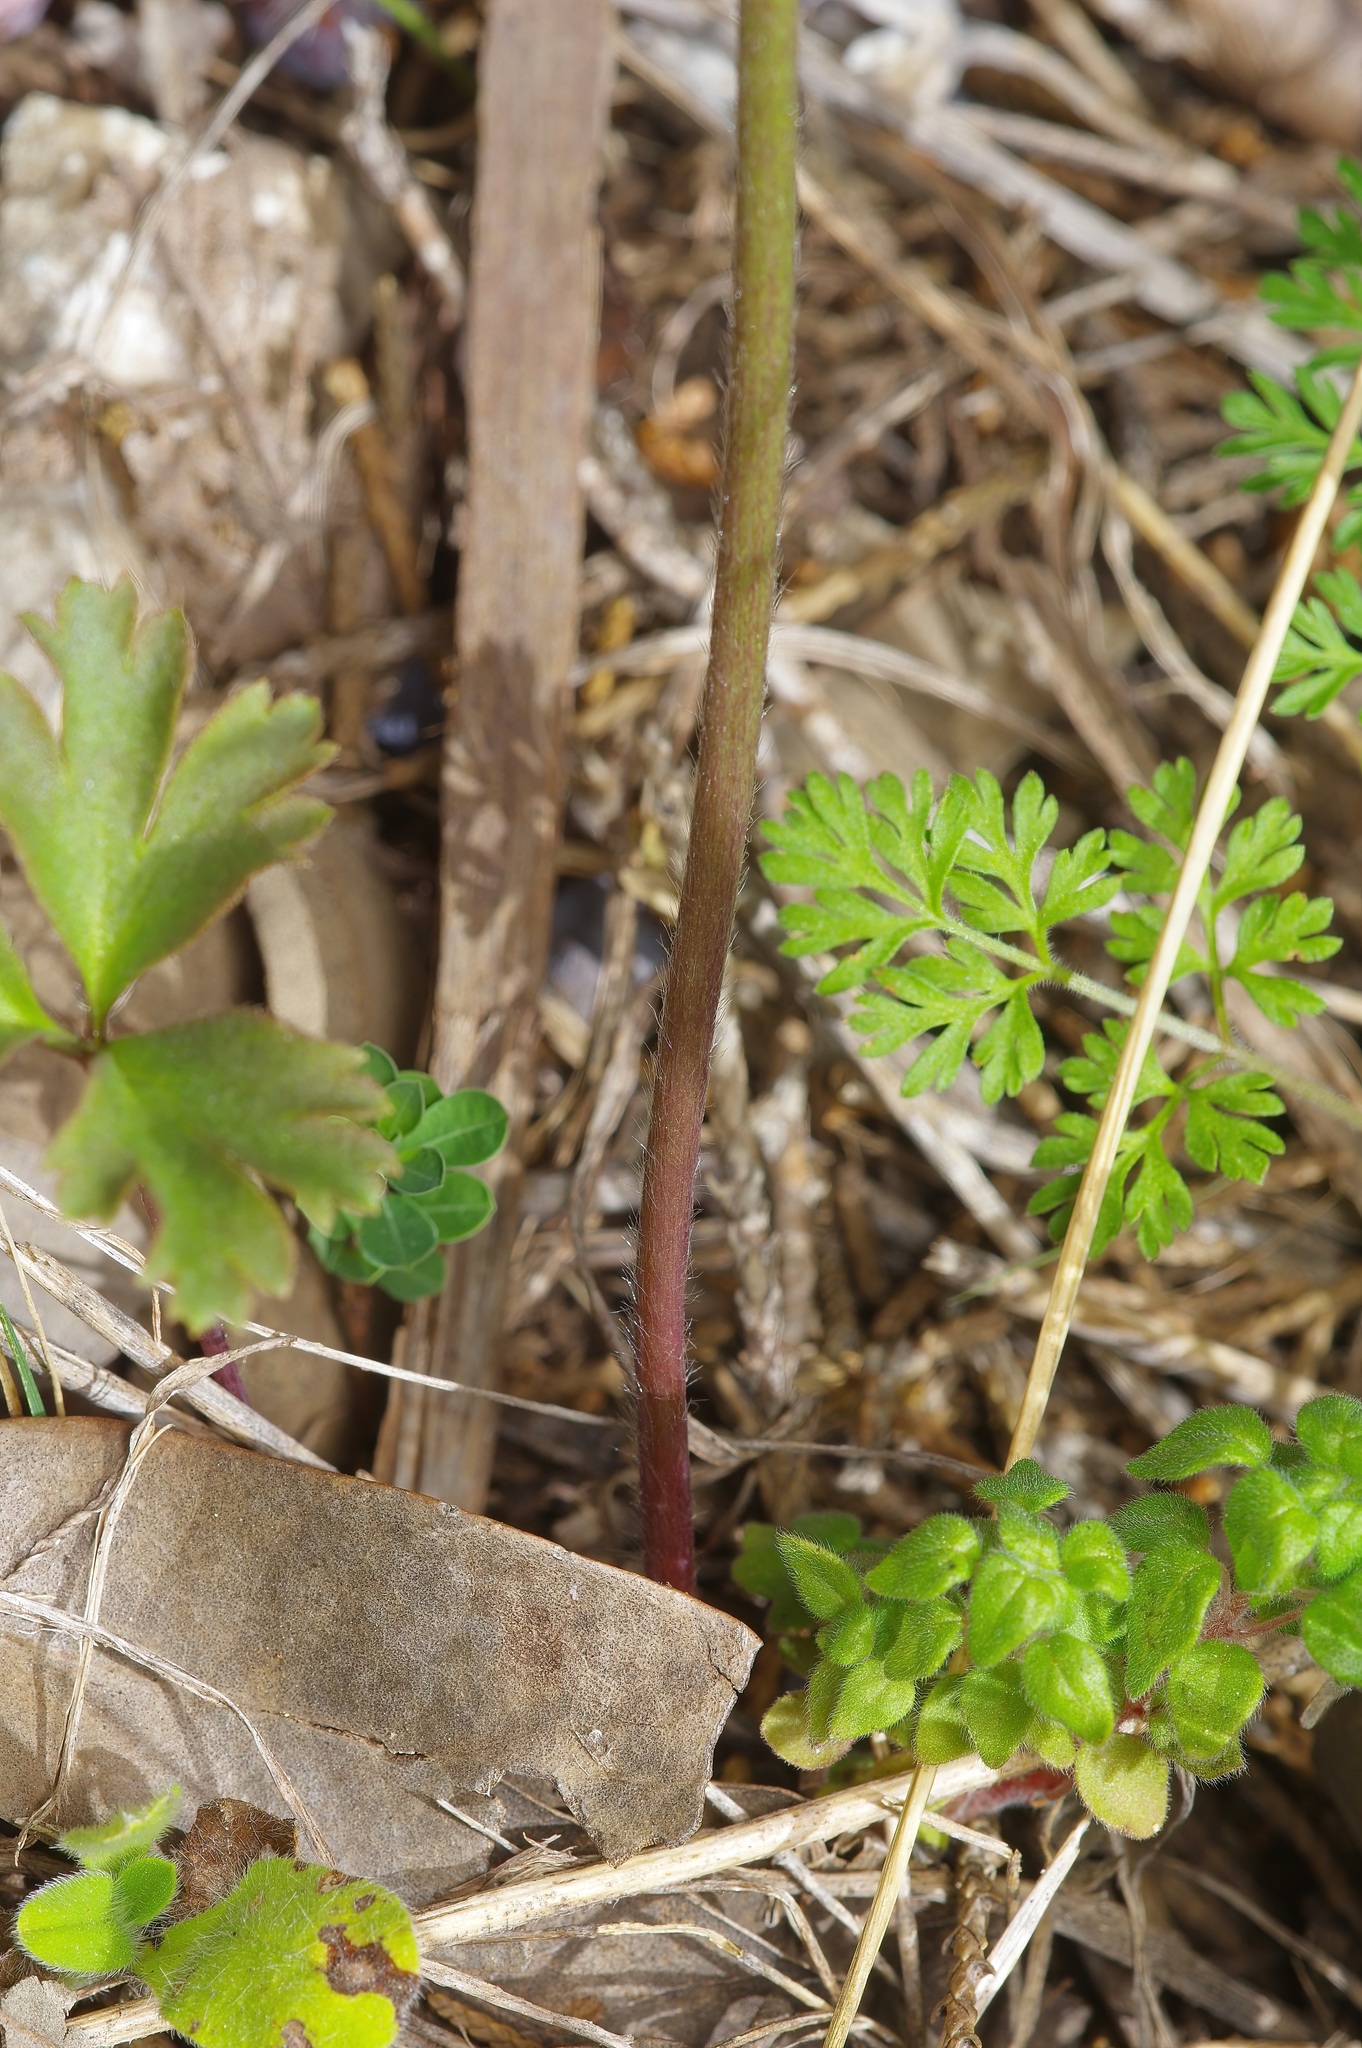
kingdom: Plantae
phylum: Tracheophyta
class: Magnoliopsida
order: Ranunculales
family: Ranunculaceae
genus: Anemone
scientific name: Anemone berlandieri
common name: Ten-petal anemone
